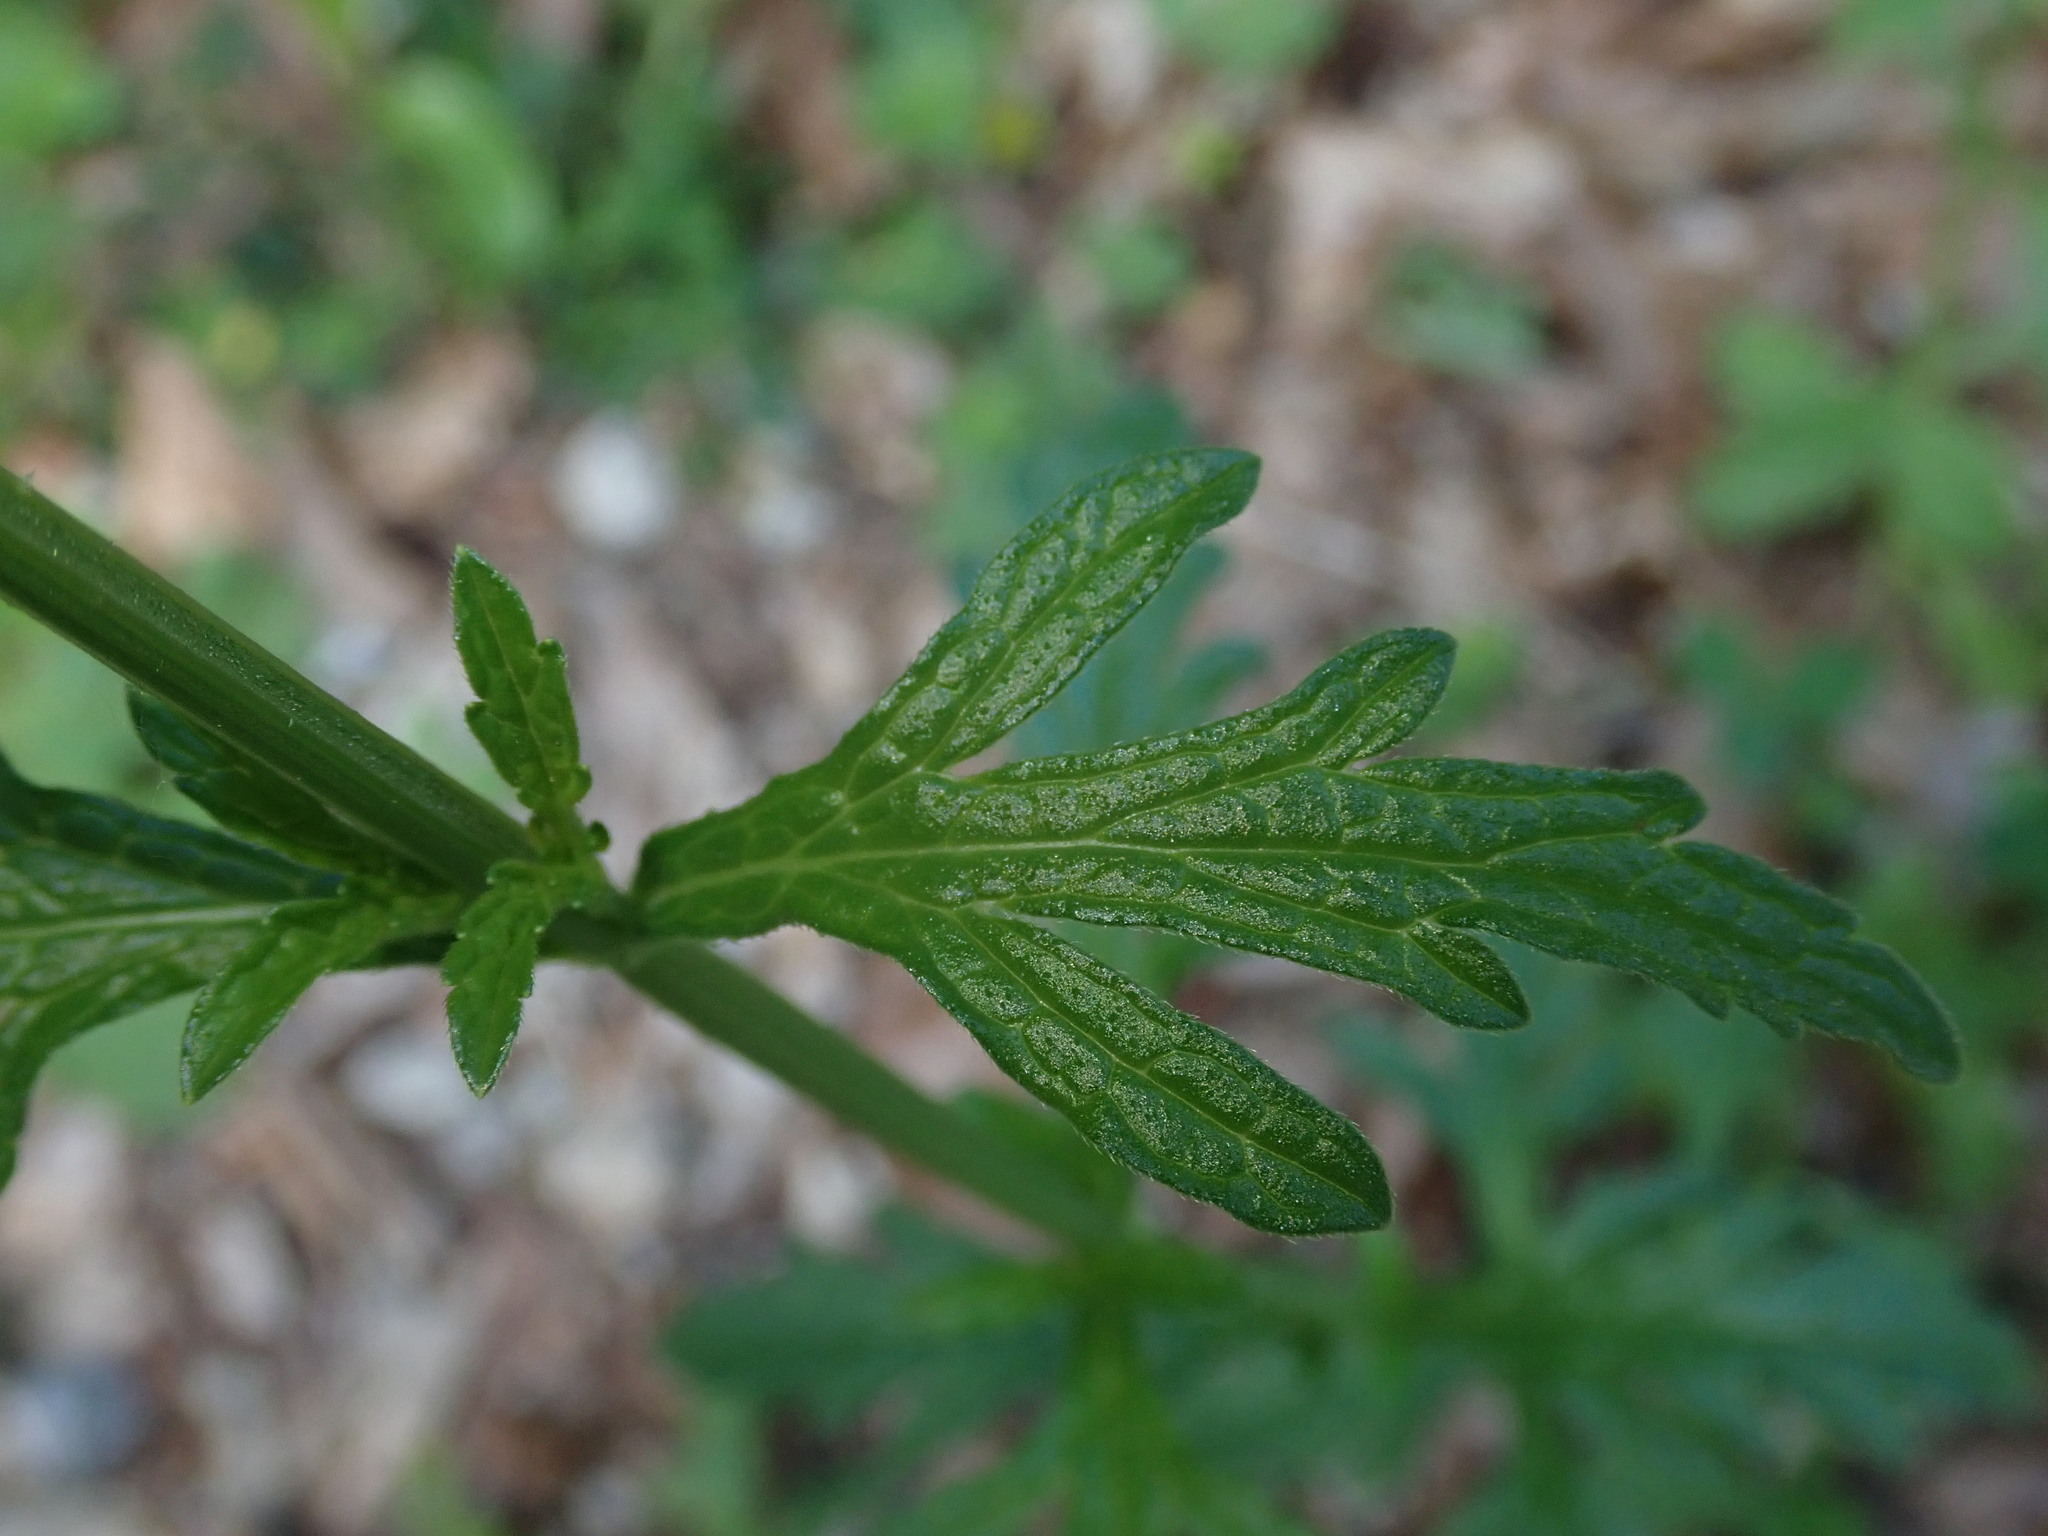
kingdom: Plantae
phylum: Tracheophyta
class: Magnoliopsida
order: Lamiales
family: Verbenaceae
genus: Verbena
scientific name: Verbena officinalis
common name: Vervain
